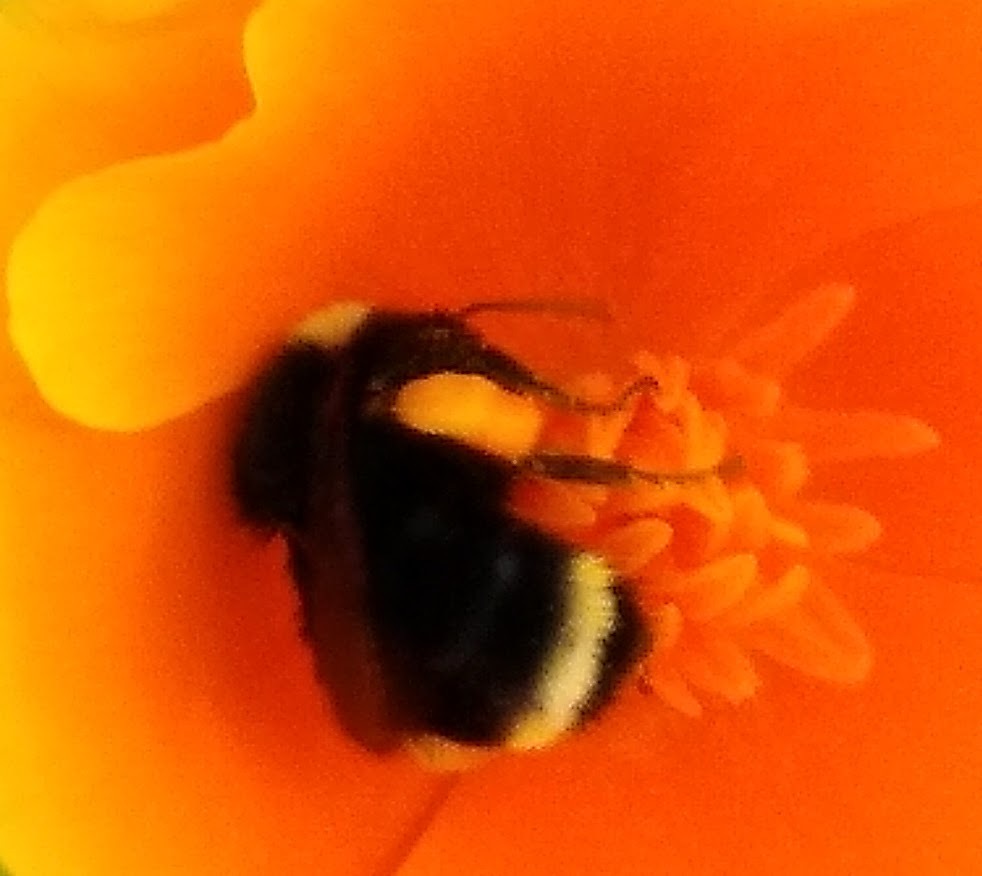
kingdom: Animalia
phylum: Arthropoda
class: Insecta
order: Hymenoptera
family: Apidae
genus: Pyrobombus
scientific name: Pyrobombus
